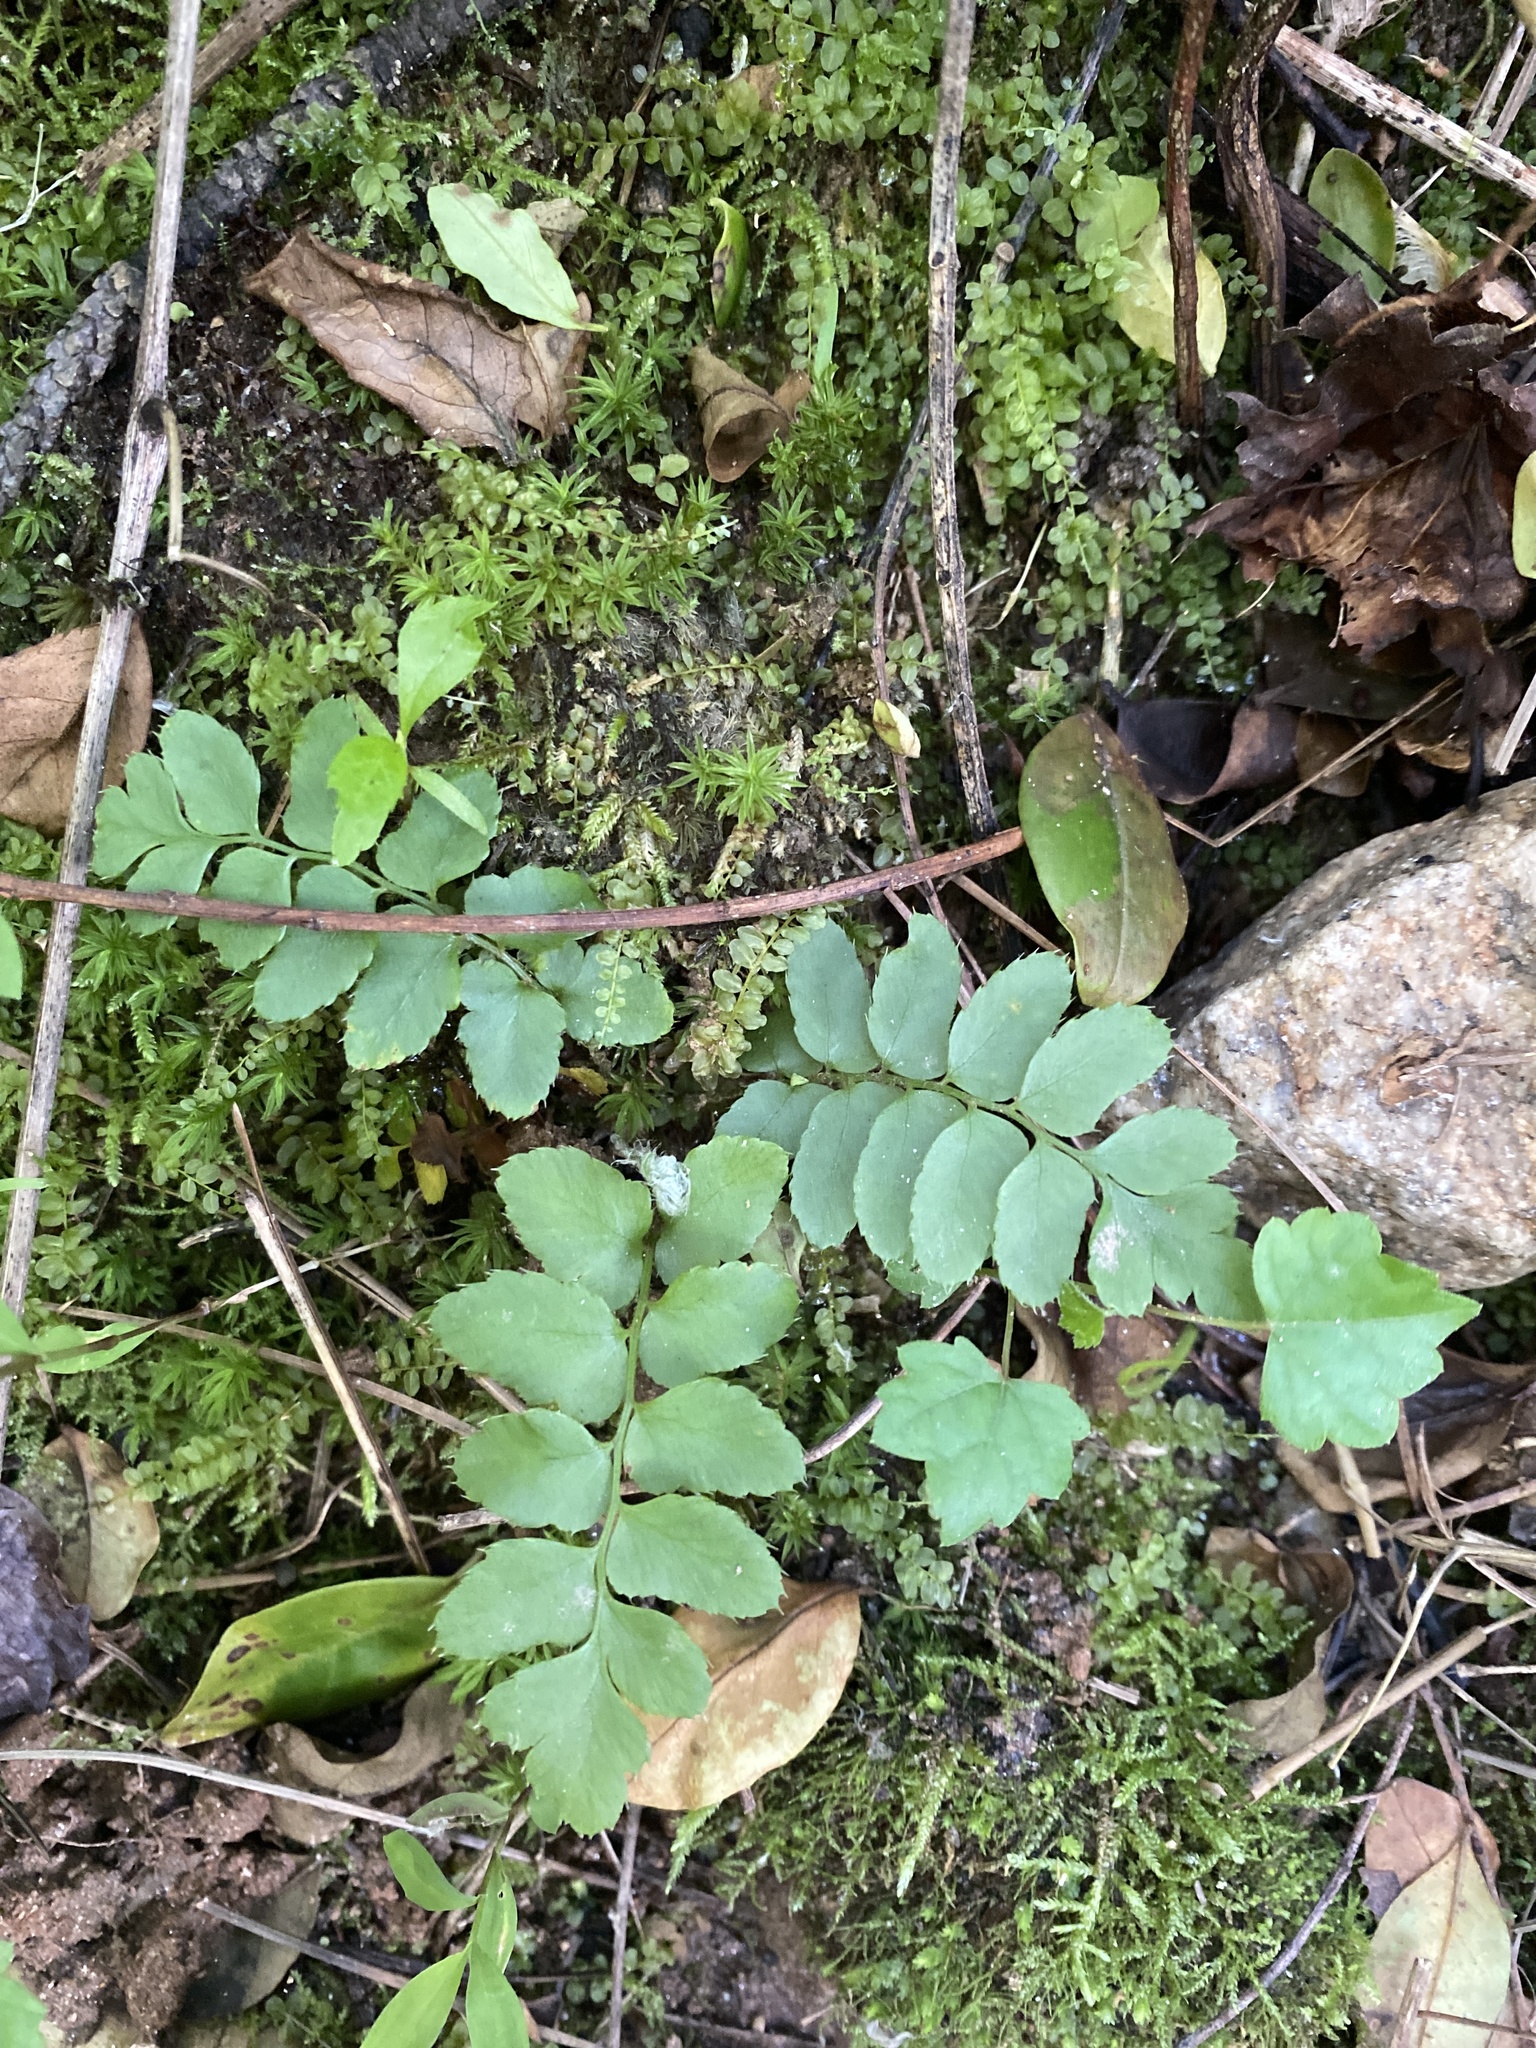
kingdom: Plantae
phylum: Tracheophyta
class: Polypodiopsida
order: Polypodiales
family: Dryopteridaceae
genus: Polystichum
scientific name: Polystichum acrostichoides
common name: Christmas fern
